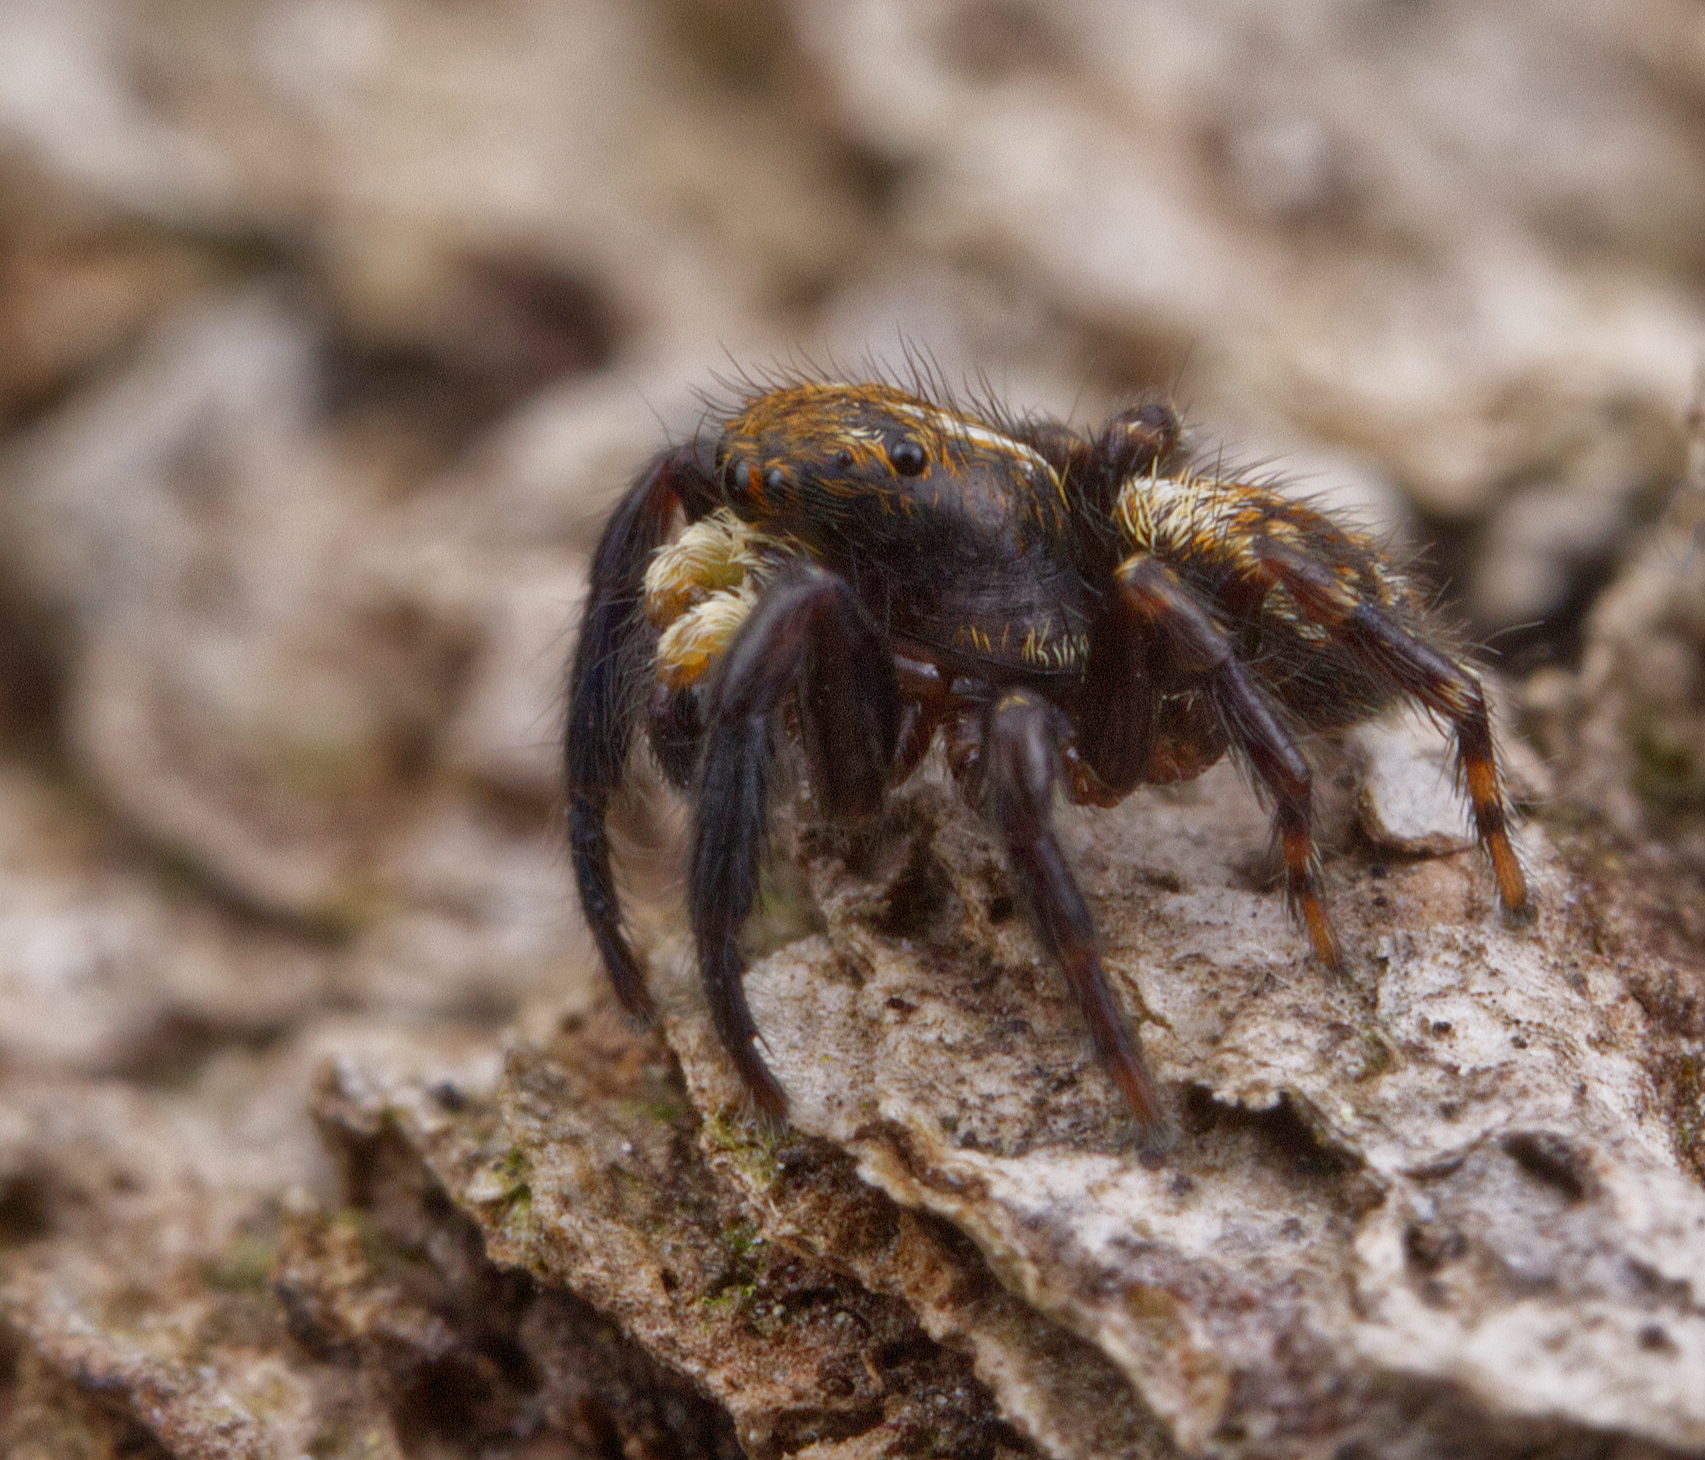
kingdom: Animalia
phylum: Arthropoda
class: Arachnida
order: Araneae
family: Salticidae
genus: Pseudeuophrys
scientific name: Pseudeuophrys erratica
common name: Jumping spider
